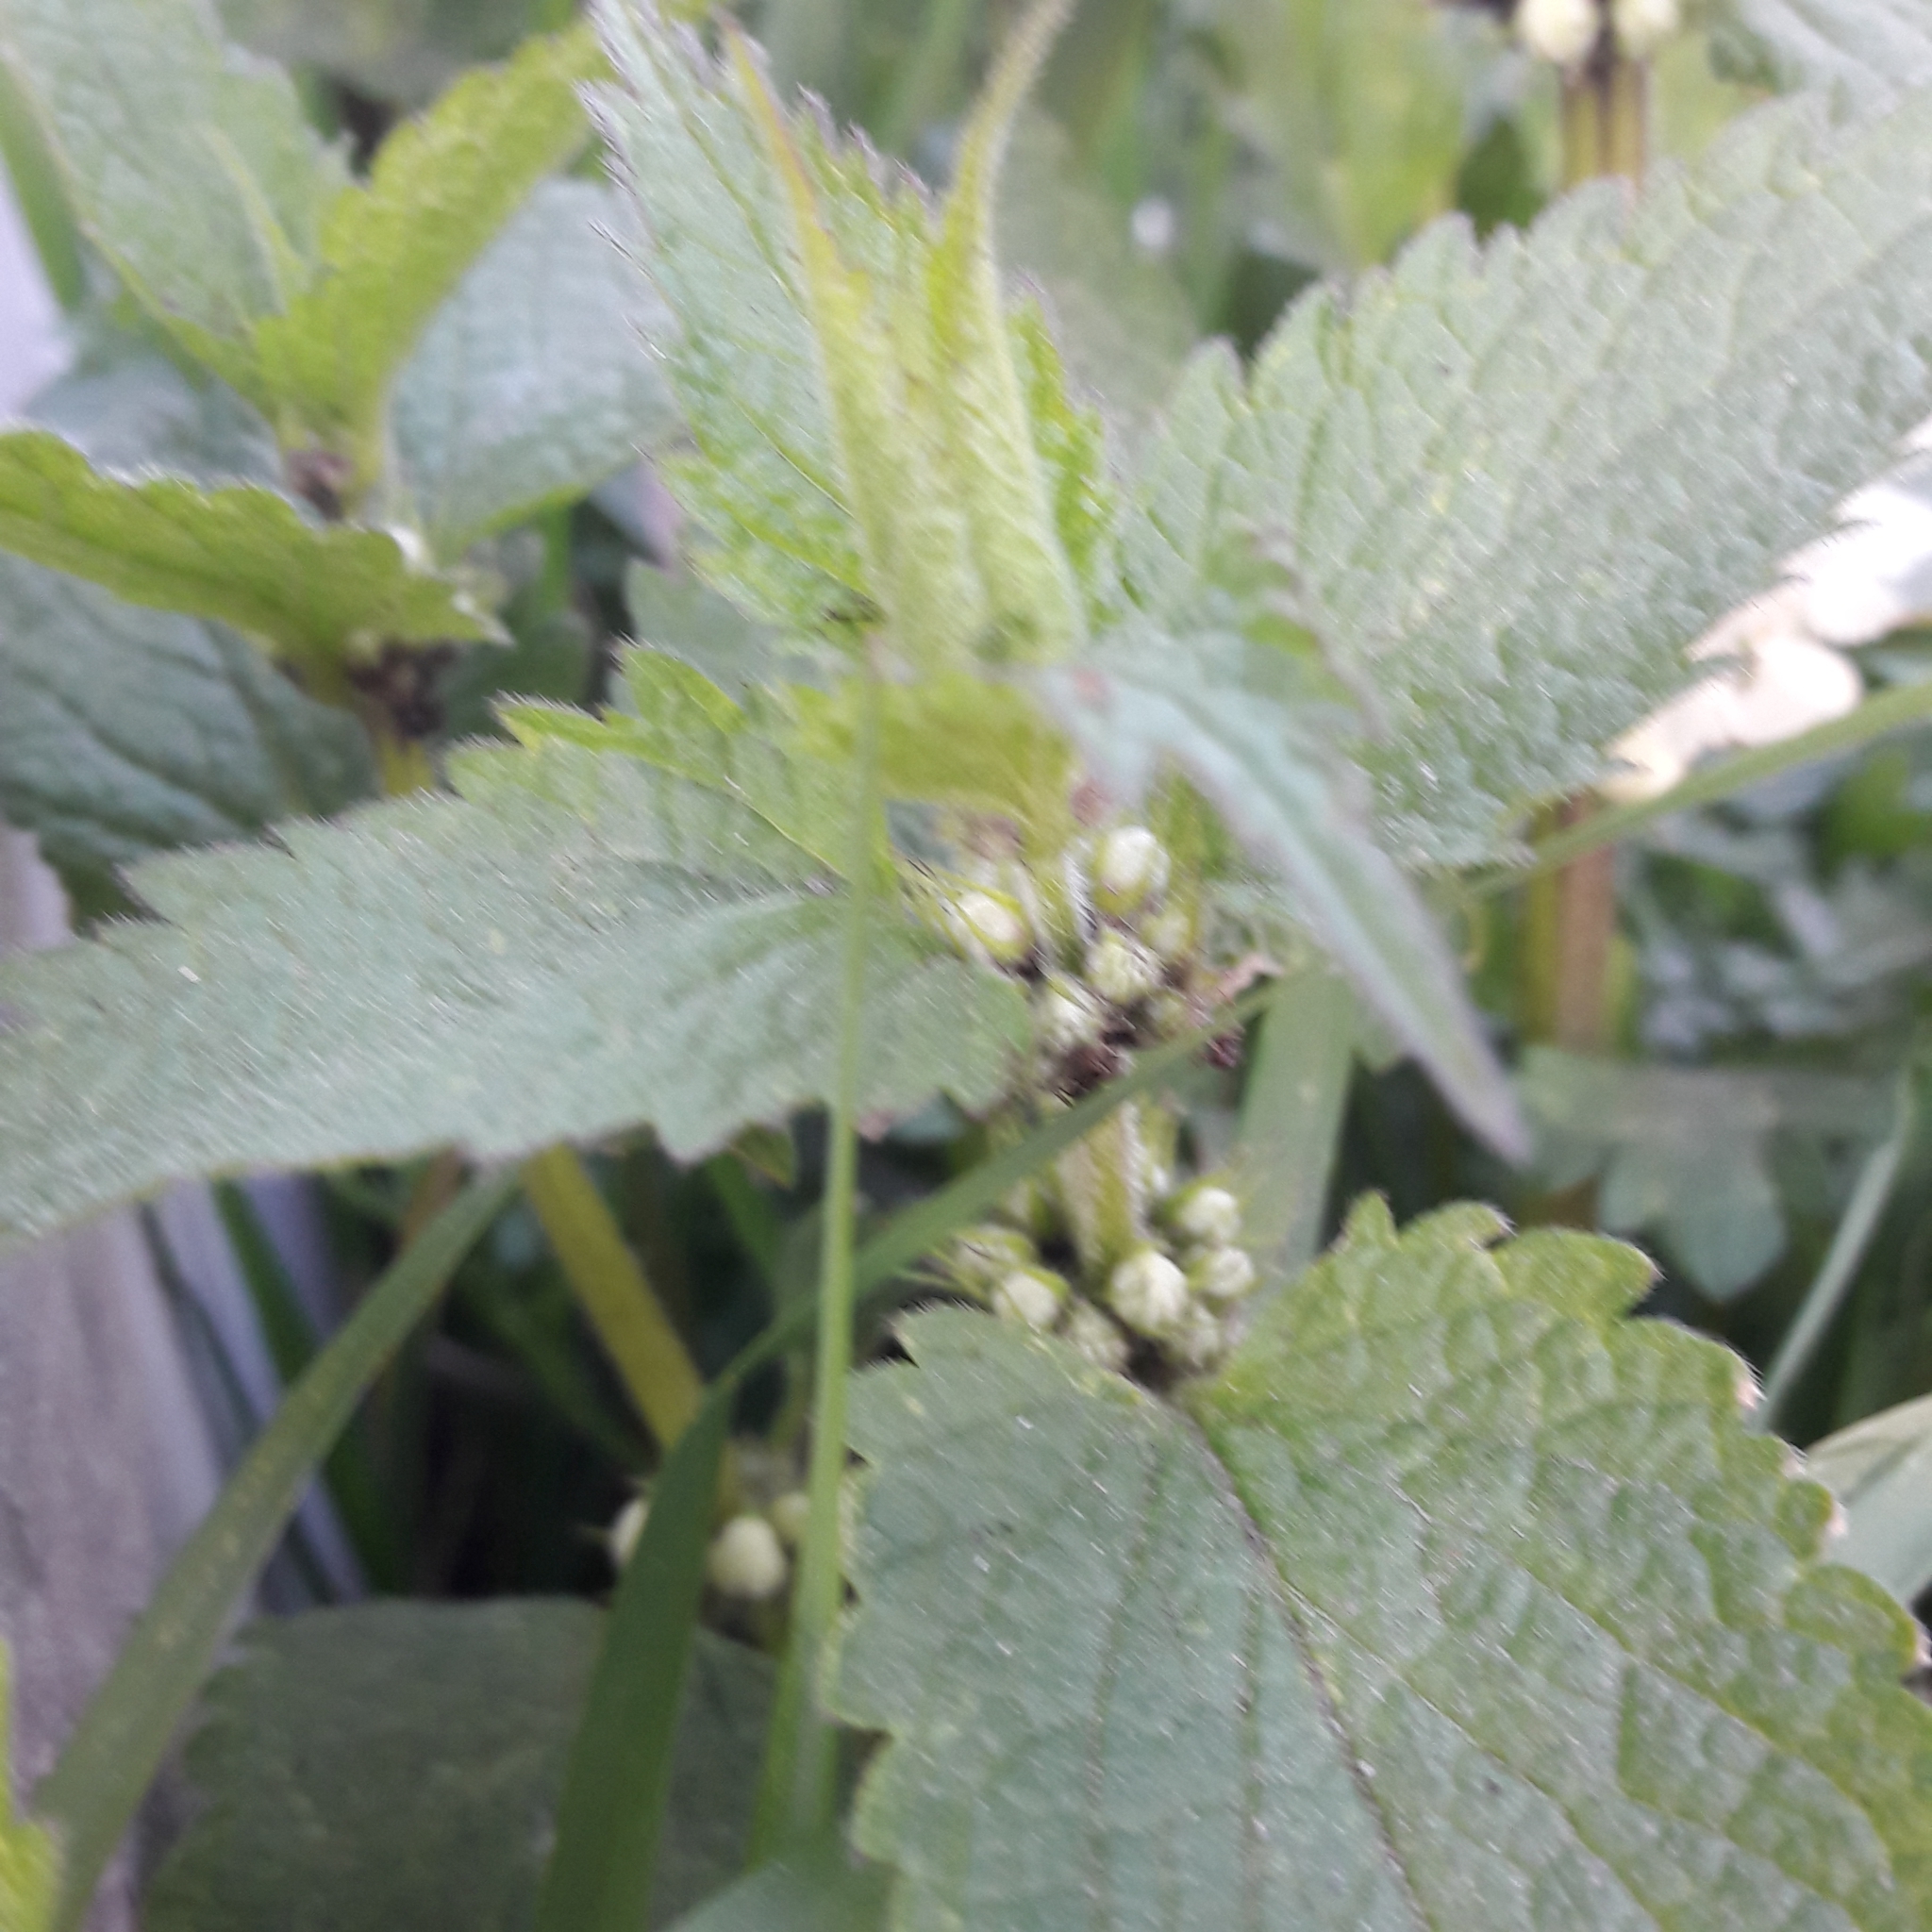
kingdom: Plantae
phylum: Tracheophyta
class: Magnoliopsida
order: Lamiales
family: Lamiaceae
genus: Lamium
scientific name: Lamium album
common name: White dead-nettle
